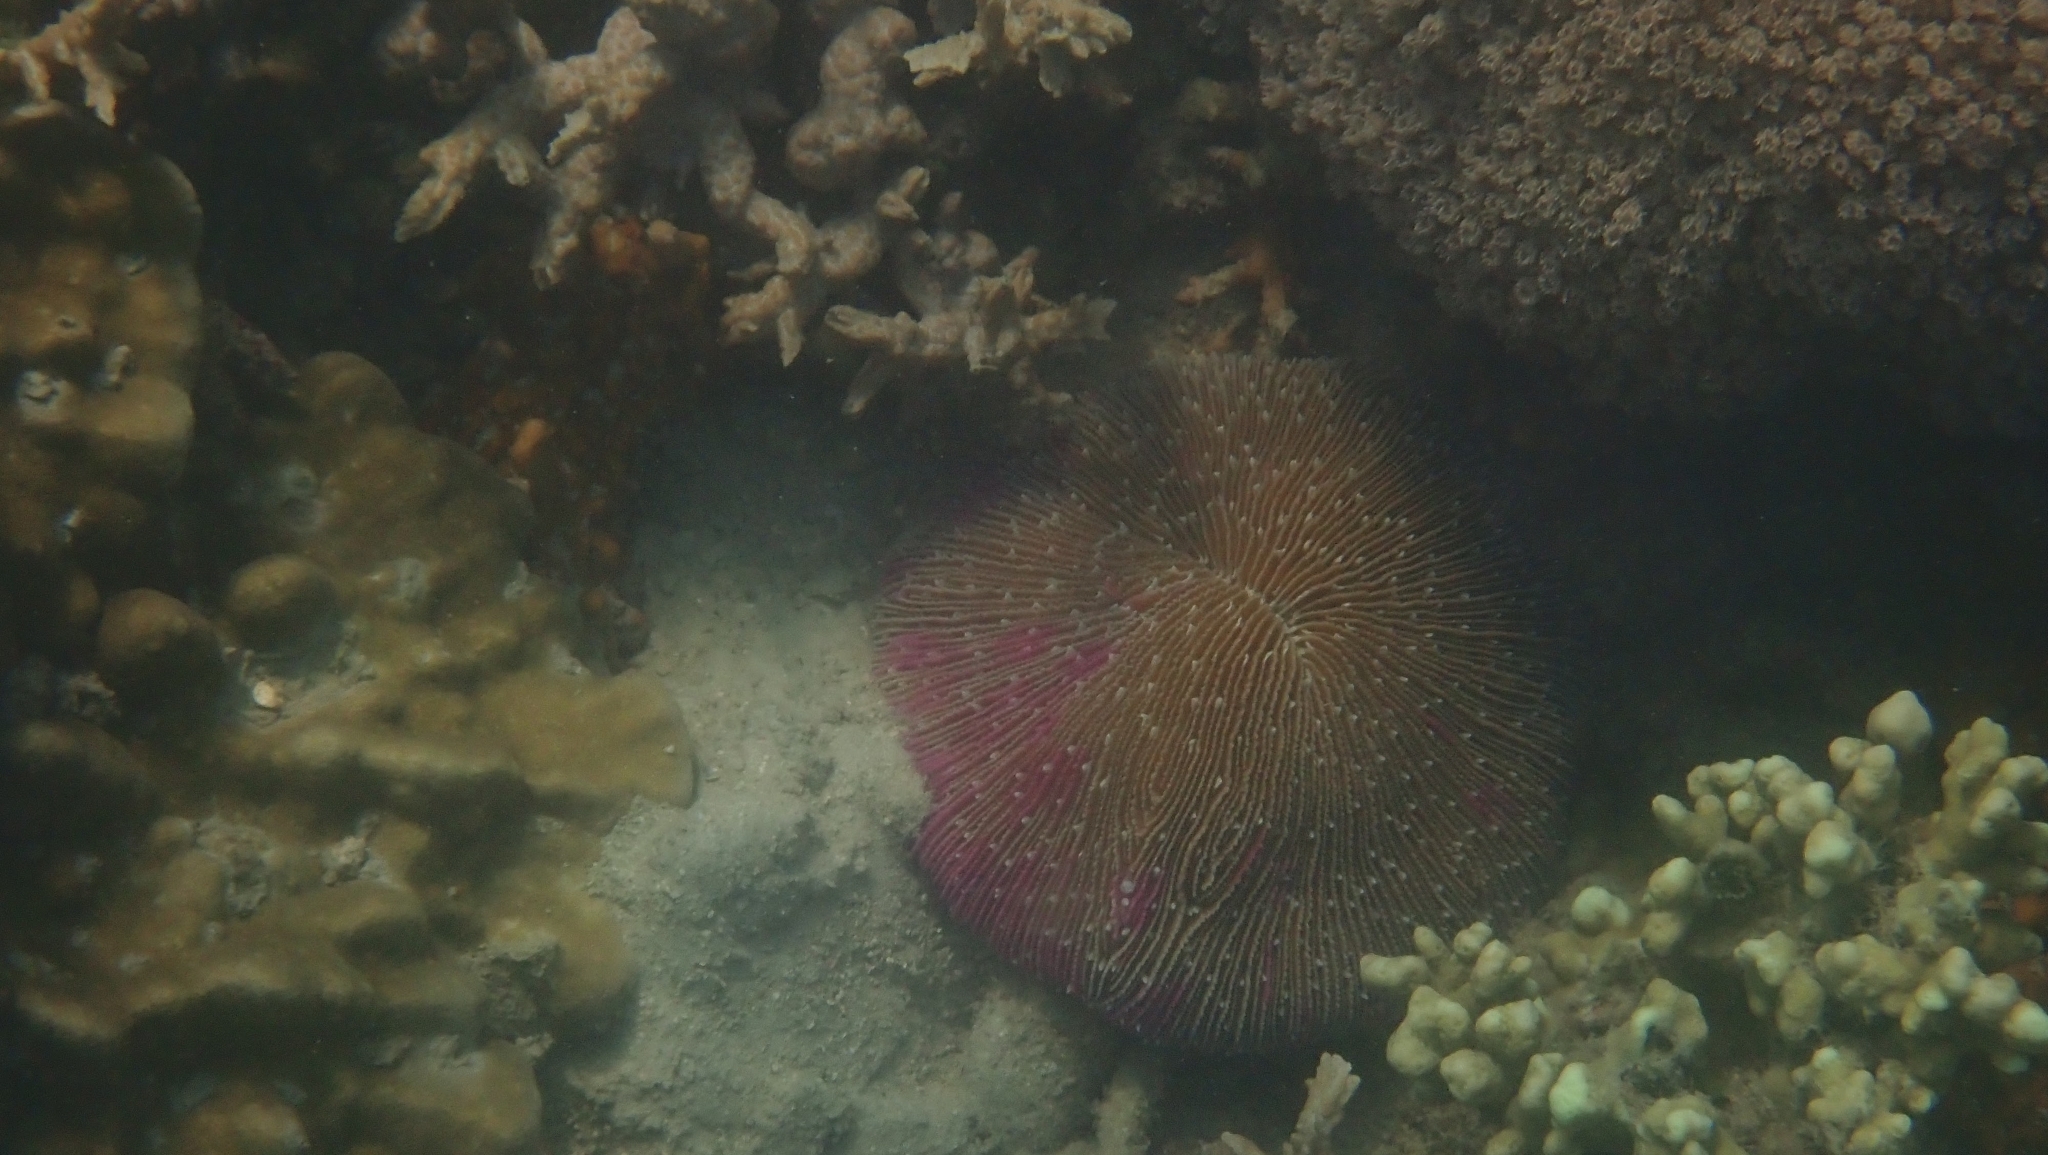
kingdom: Animalia
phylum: Cnidaria
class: Anthozoa
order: Scleractinia
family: Fungiidae
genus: Fungia
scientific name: Fungia fungites
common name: Mushroom coral
